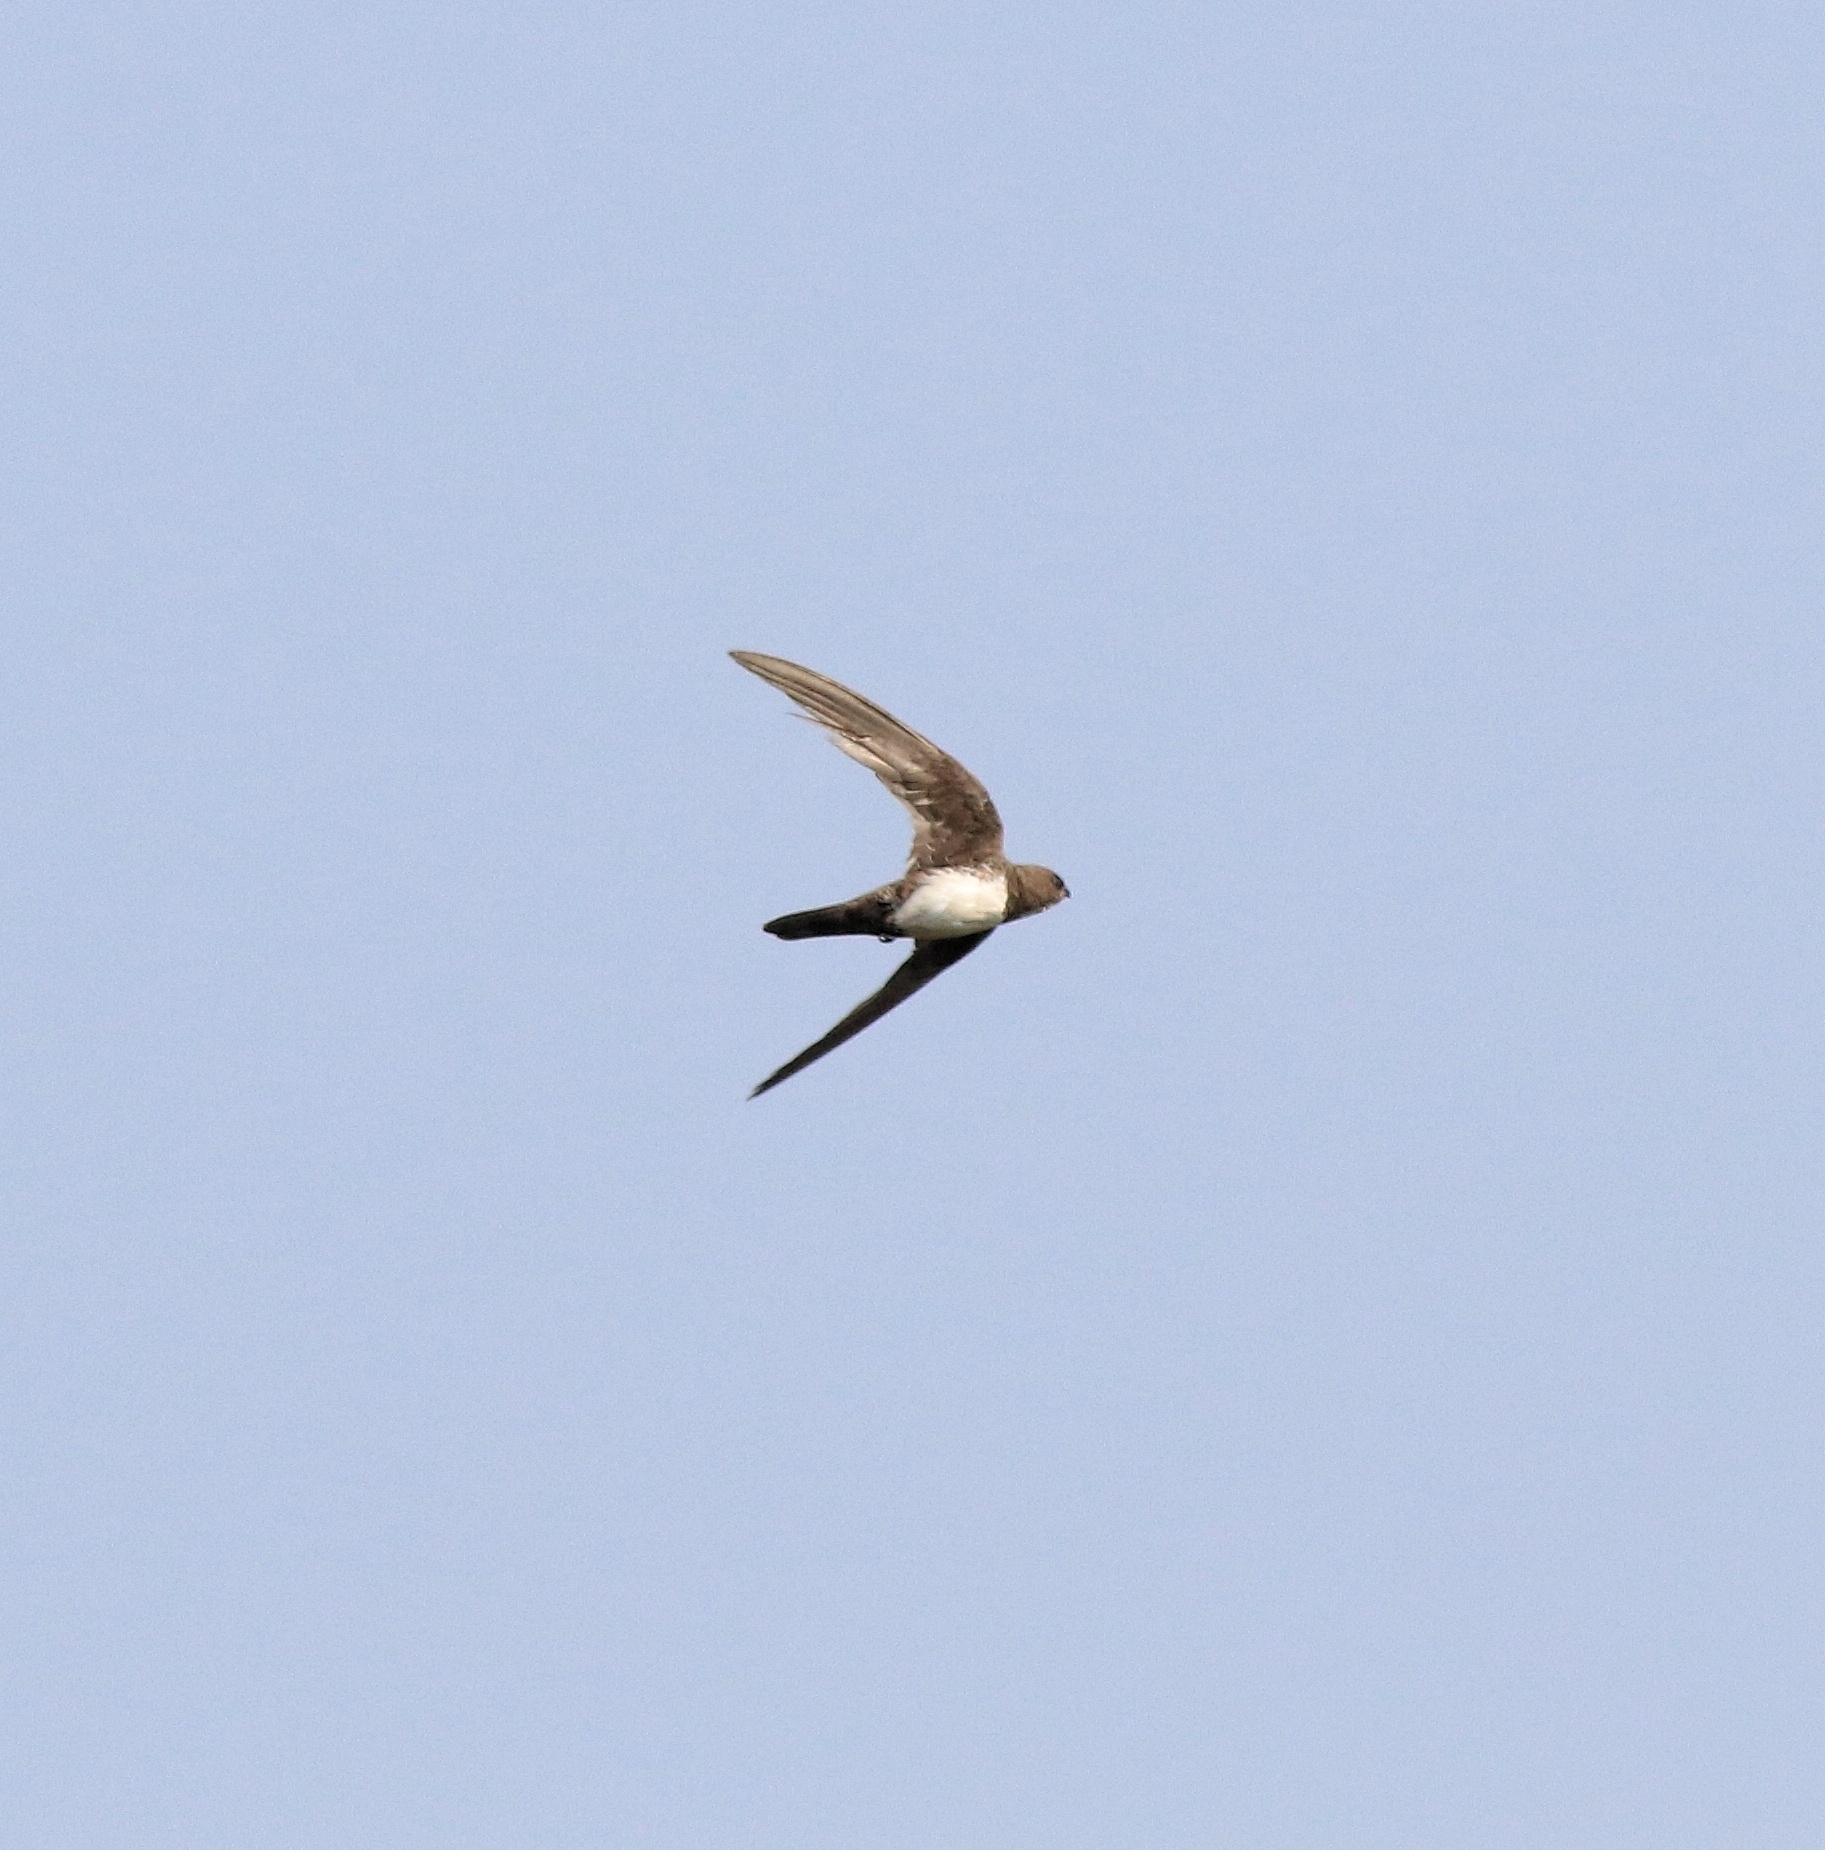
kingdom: Animalia
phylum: Chordata
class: Aves
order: Apodiformes
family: Apodidae
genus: Tachymarptis
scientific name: Tachymarptis melba
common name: Alpine swift
